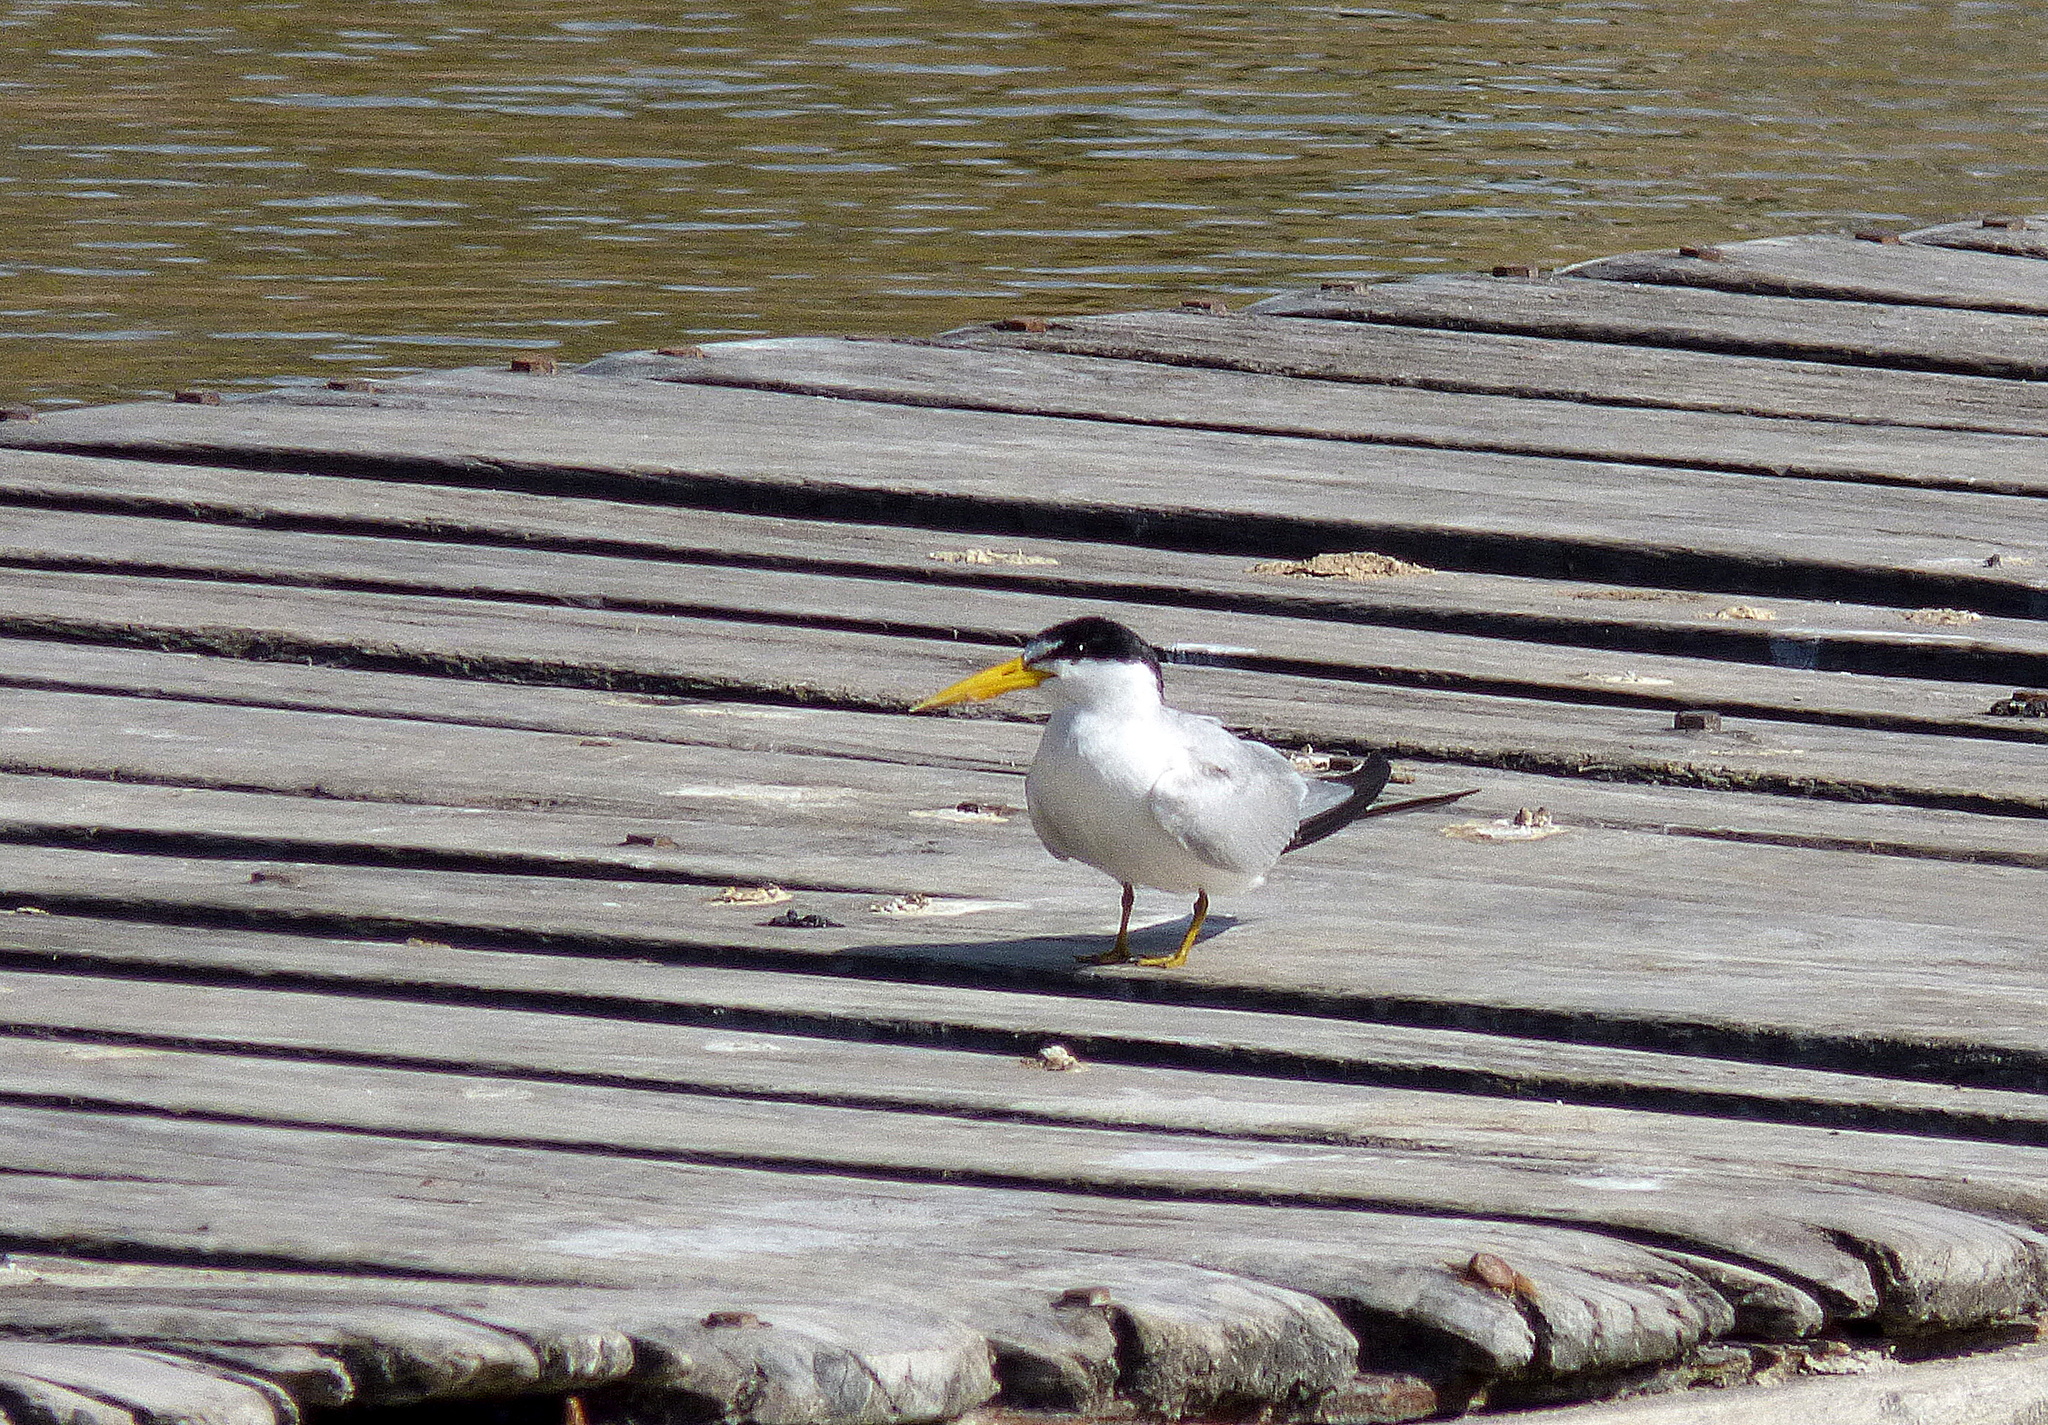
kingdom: Animalia
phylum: Chordata
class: Aves
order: Charadriiformes
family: Laridae
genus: Sternula
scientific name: Sternula superciliaris
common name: Yellow-billed tern
